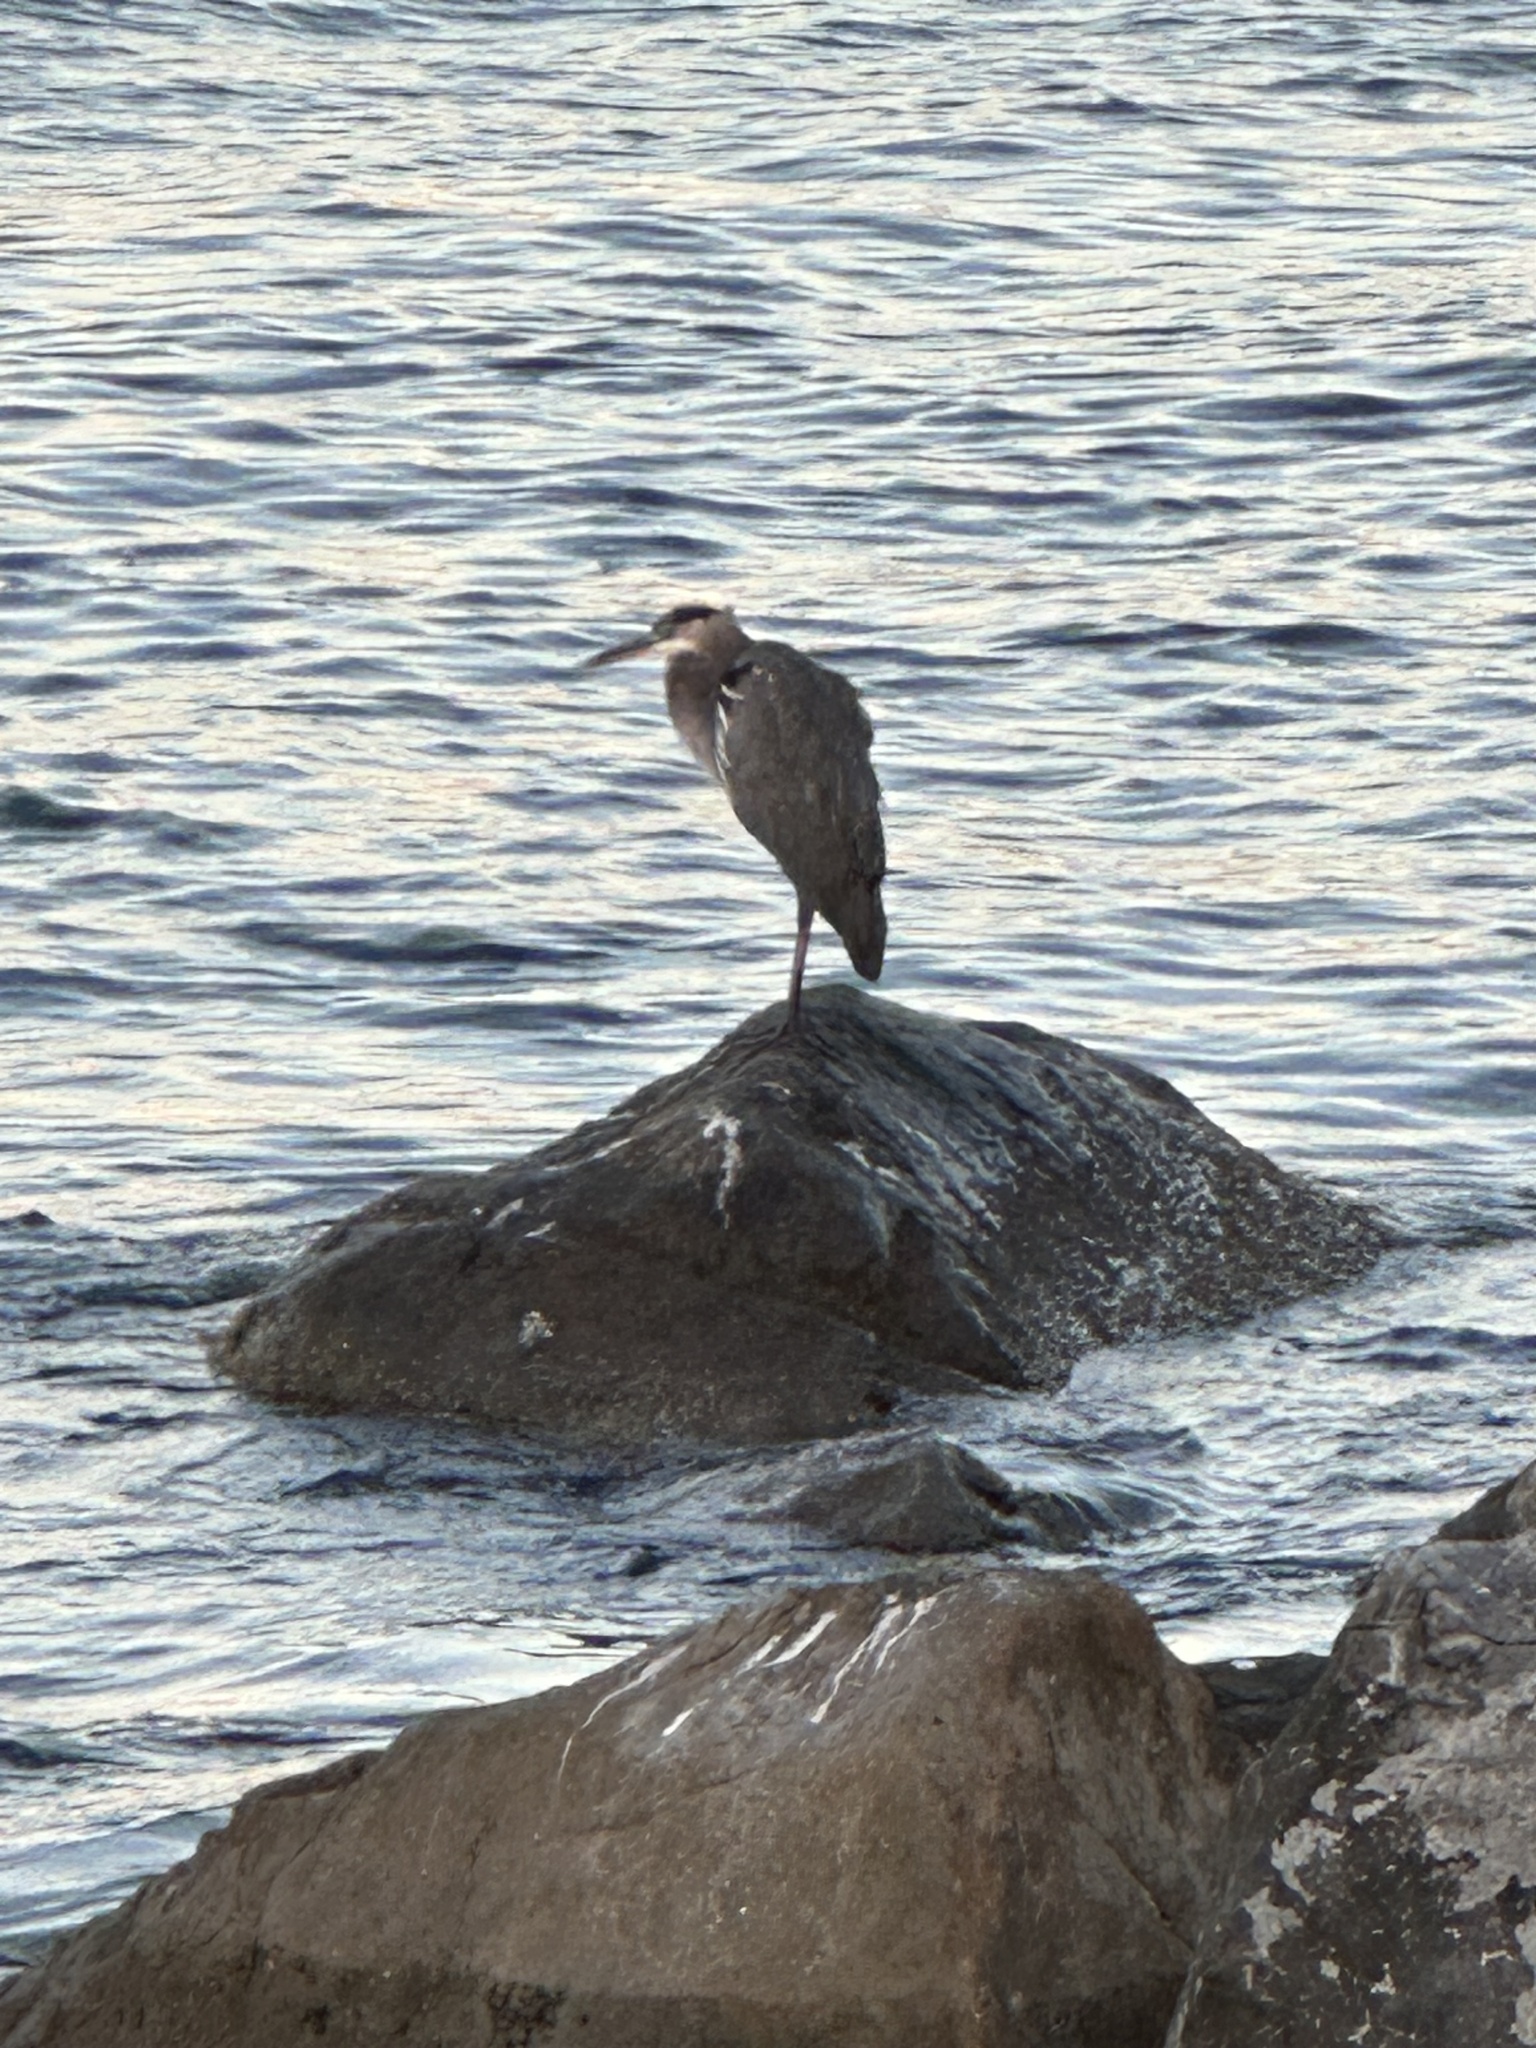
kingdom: Animalia
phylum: Chordata
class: Aves
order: Pelecaniformes
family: Ardeidae
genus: Ardea
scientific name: Ardea herodias
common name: Great blue heron
